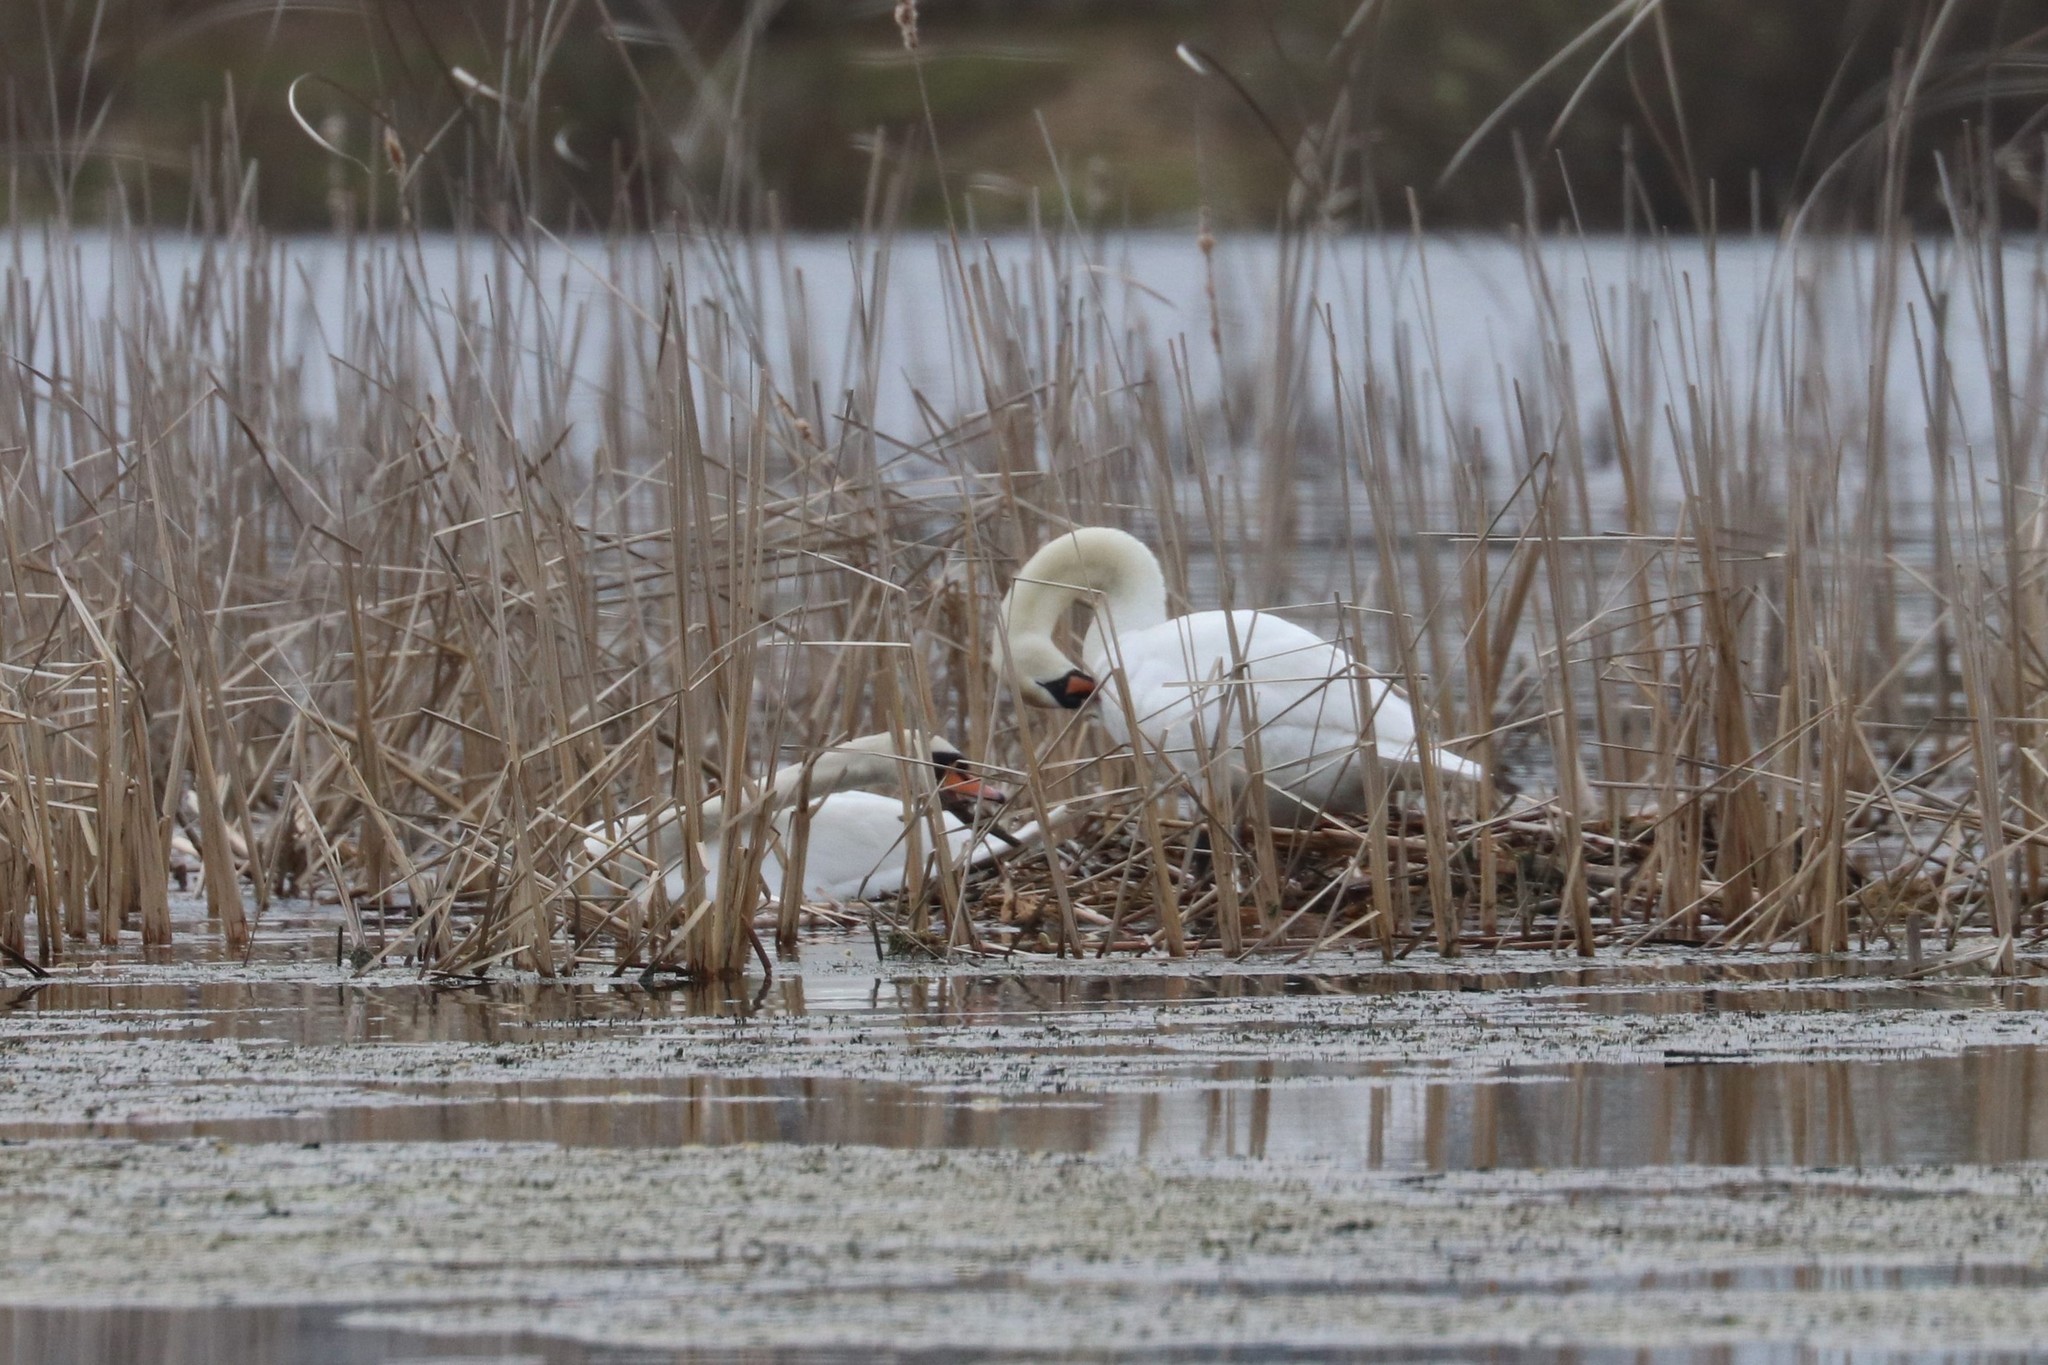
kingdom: Animalia
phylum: Chordata
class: Aves
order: Anseriformes
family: Anatidae
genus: Cygnus
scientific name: Cygnus olor
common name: Mute swan
